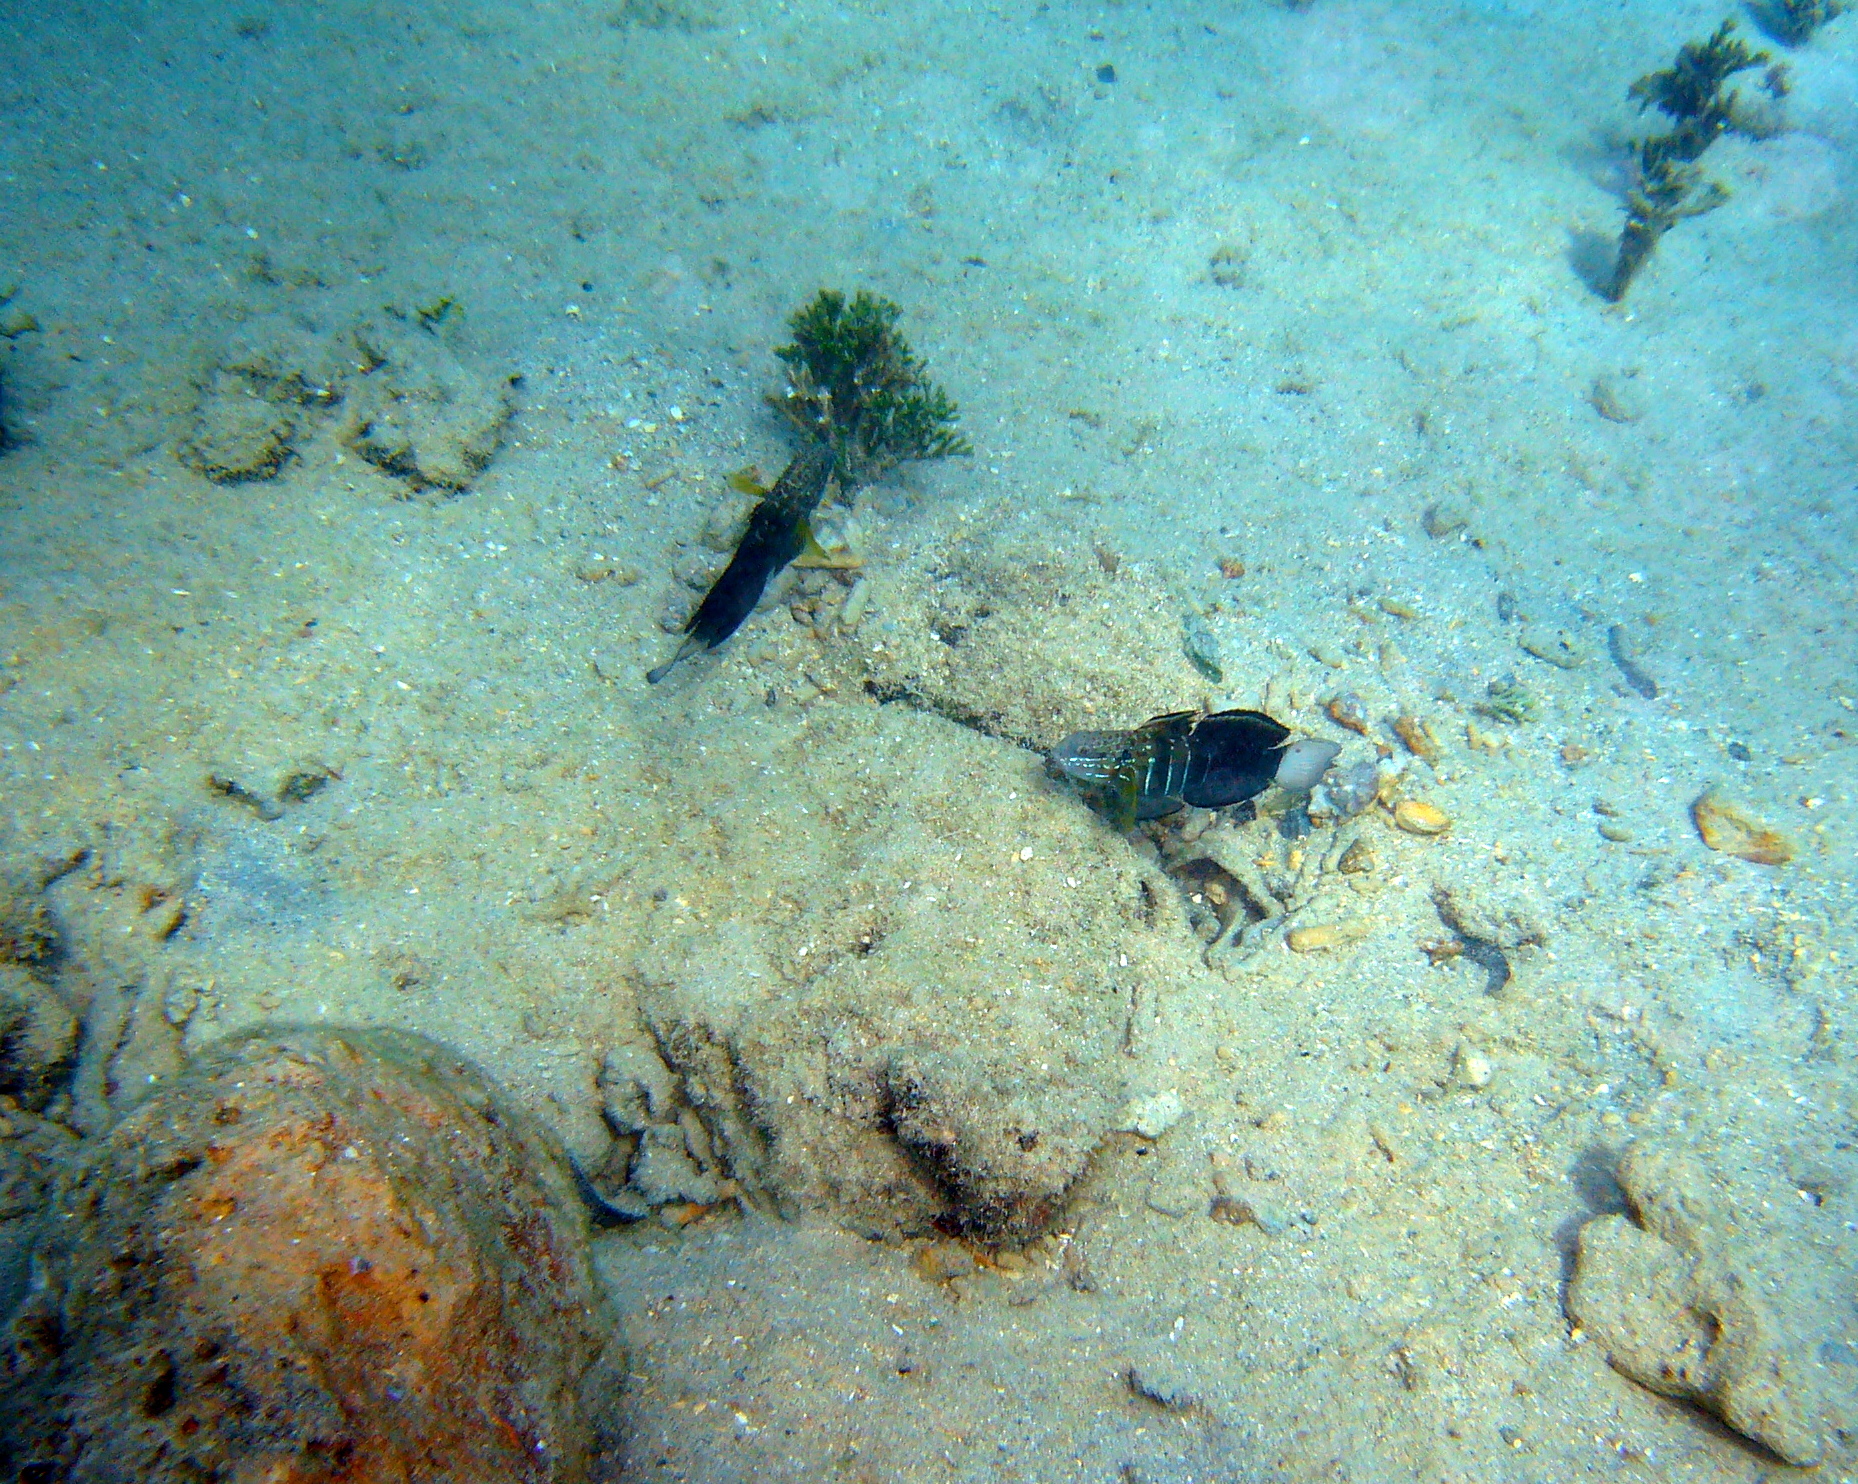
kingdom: Animalia
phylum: Chordata
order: Perciformes
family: Gobiidae
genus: Amblygobius
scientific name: Amblygobius phalaena
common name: Banded goby
